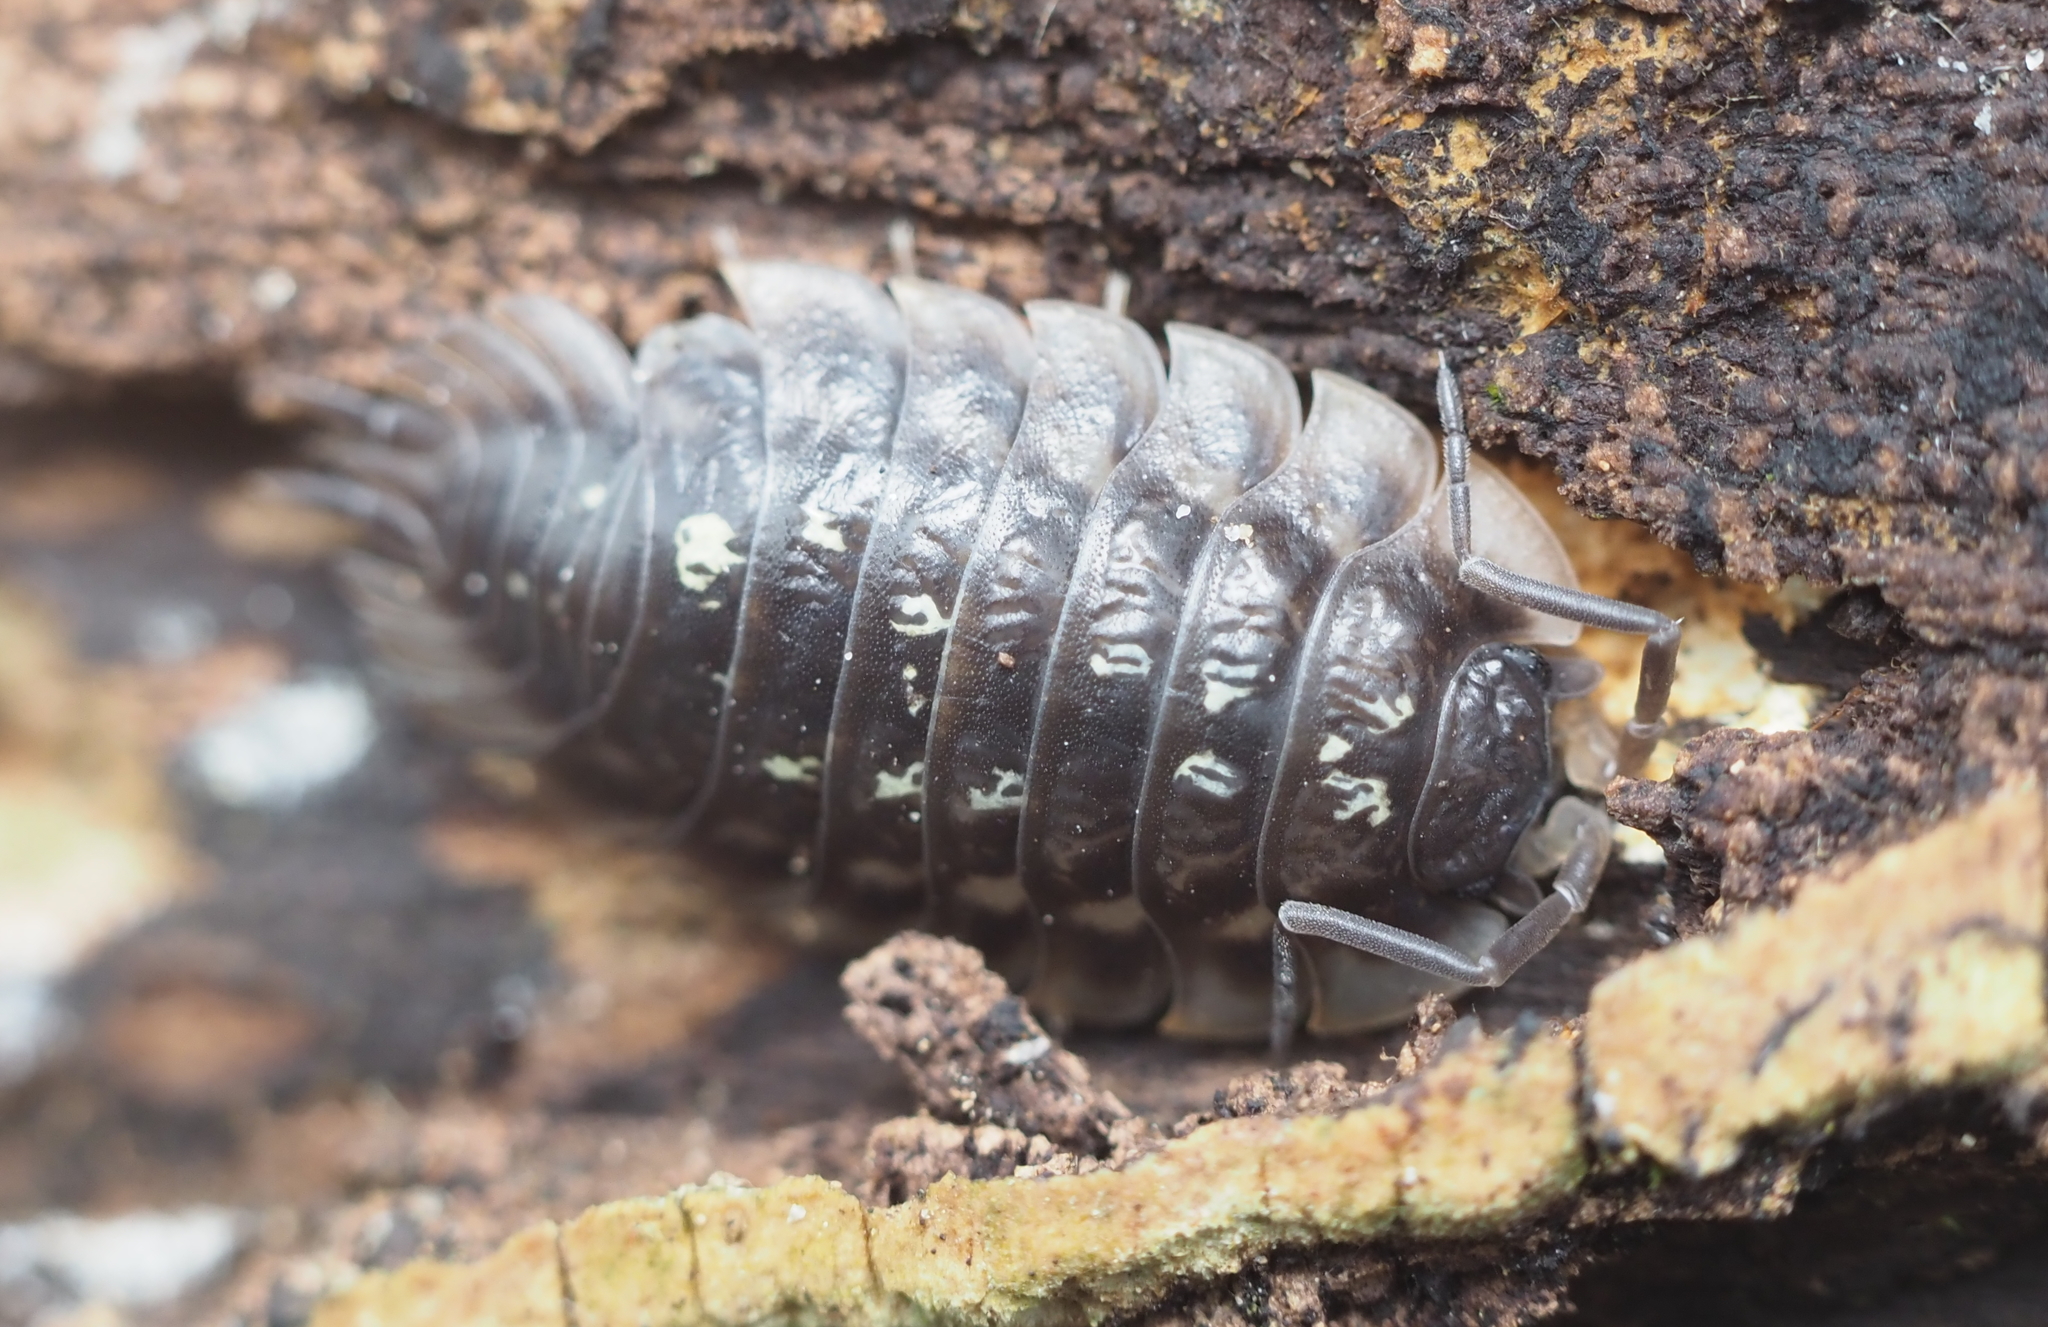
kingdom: Animalia
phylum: Arthropoda
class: Malacostraca
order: Isopoda
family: Oniscidae
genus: Oniscus
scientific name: Oniscus asellus
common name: Common shiny woodlouse
